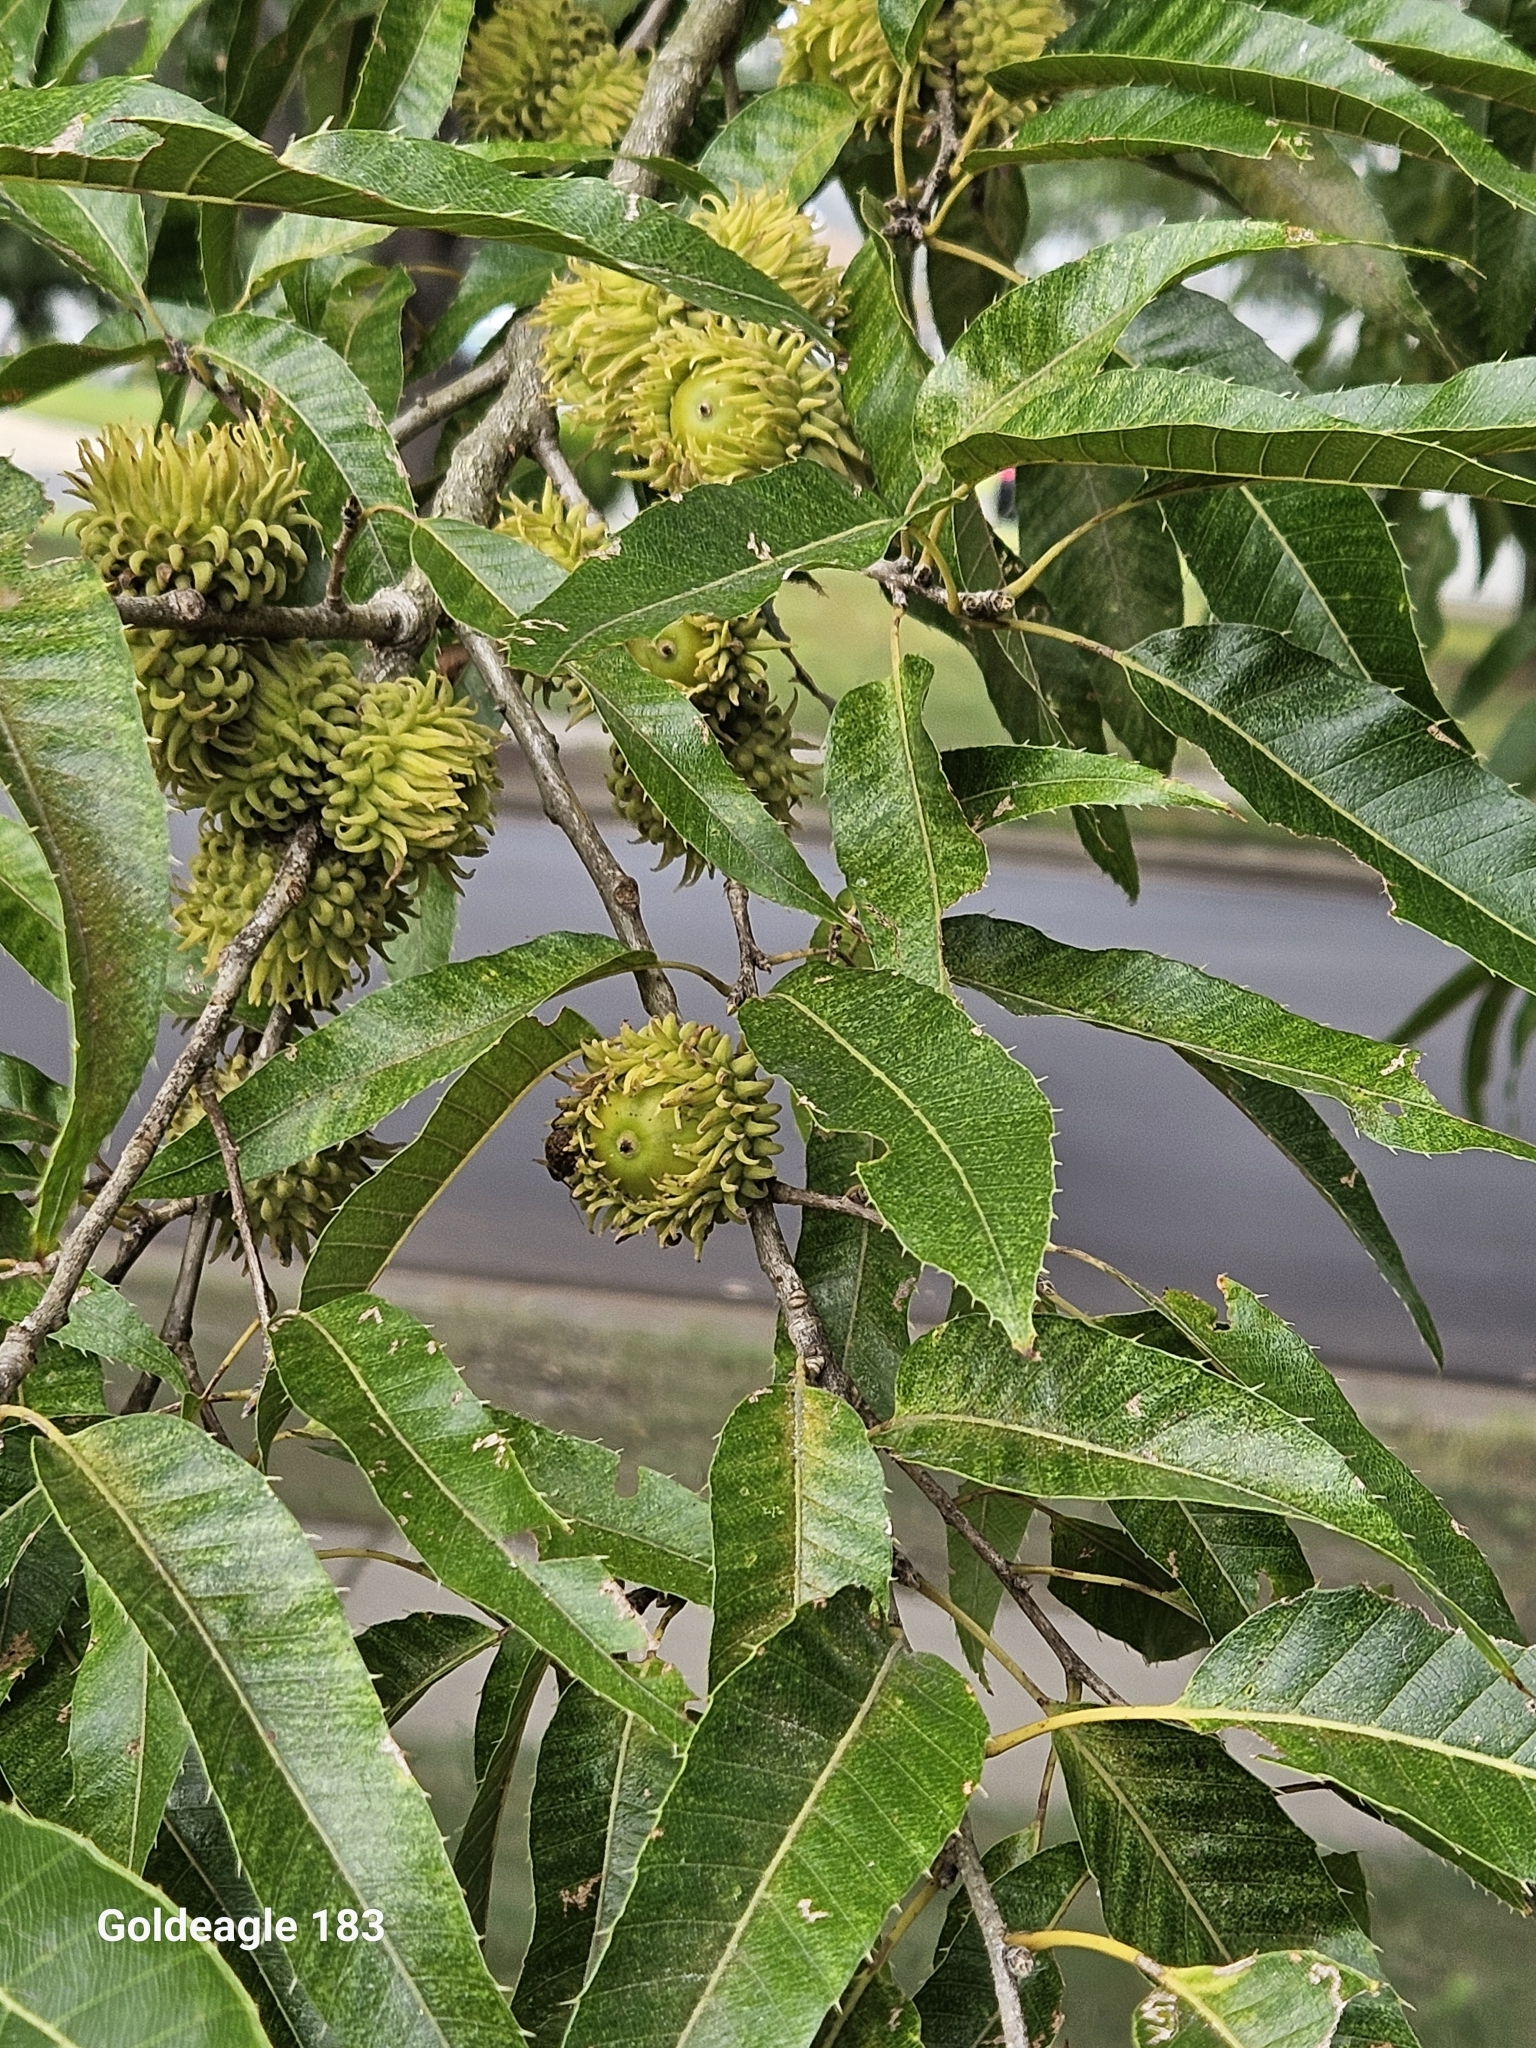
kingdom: Plantae
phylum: Tracheophyta
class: Magnoliopsida
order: Fagales
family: Fagaceae
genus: Quercus
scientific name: Quercus acutissima
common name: Sawtooth oak
